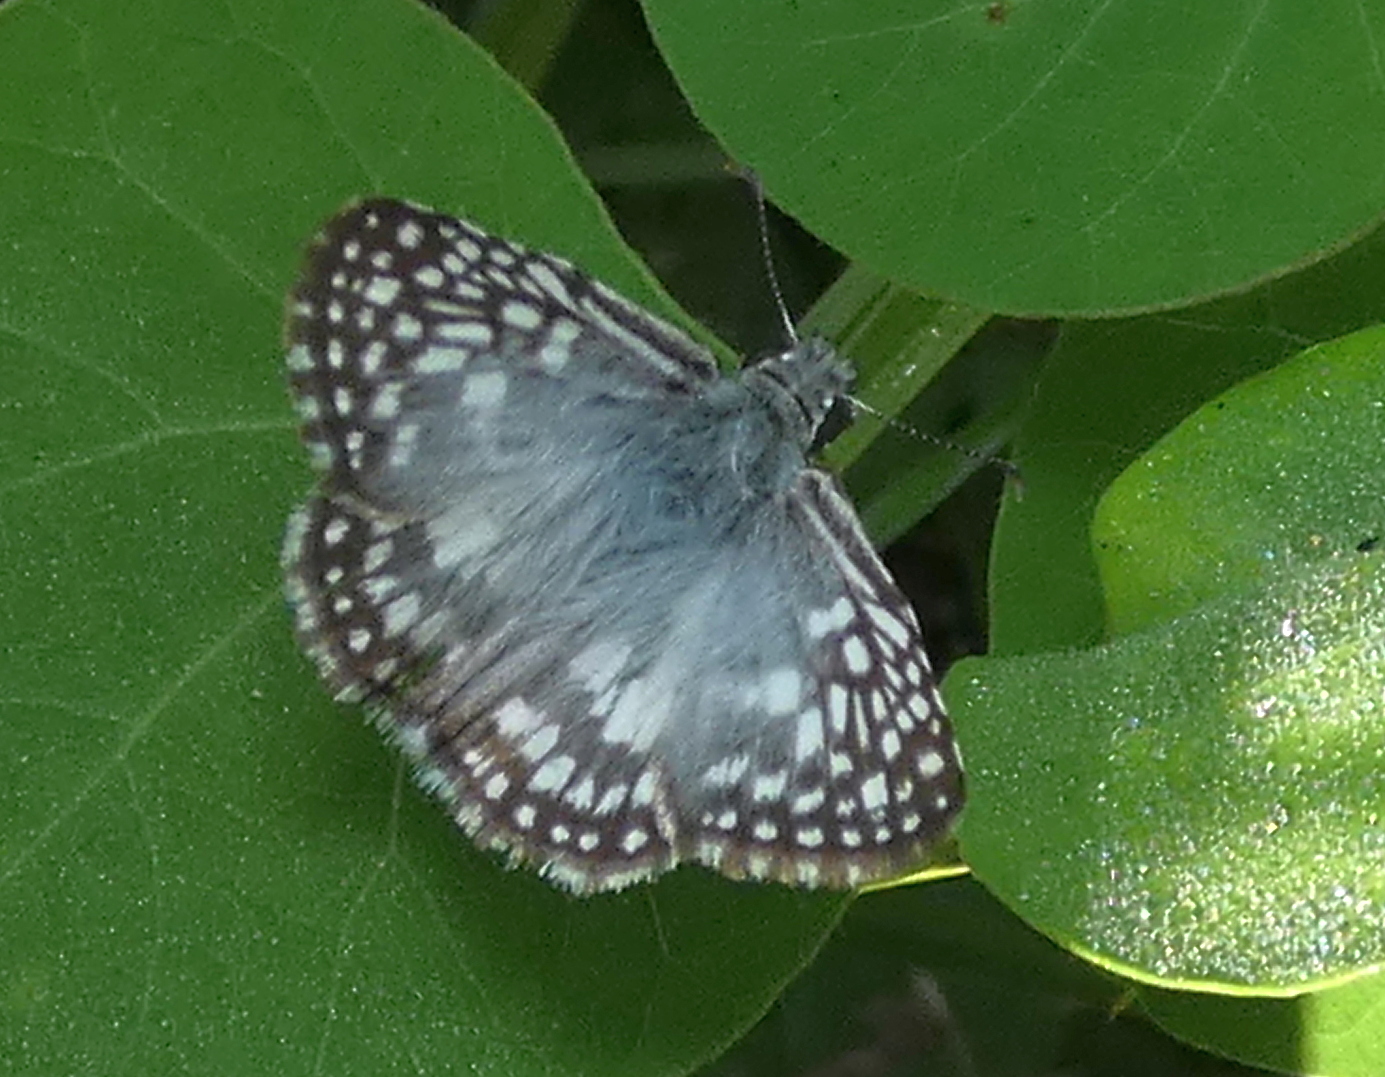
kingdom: Animalia
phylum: Arthropoda
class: Insecta
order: Lepidoptera
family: Hesperiidae
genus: Pyrgus
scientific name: Pyrgus oileus
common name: Tropical checkered-skipper
